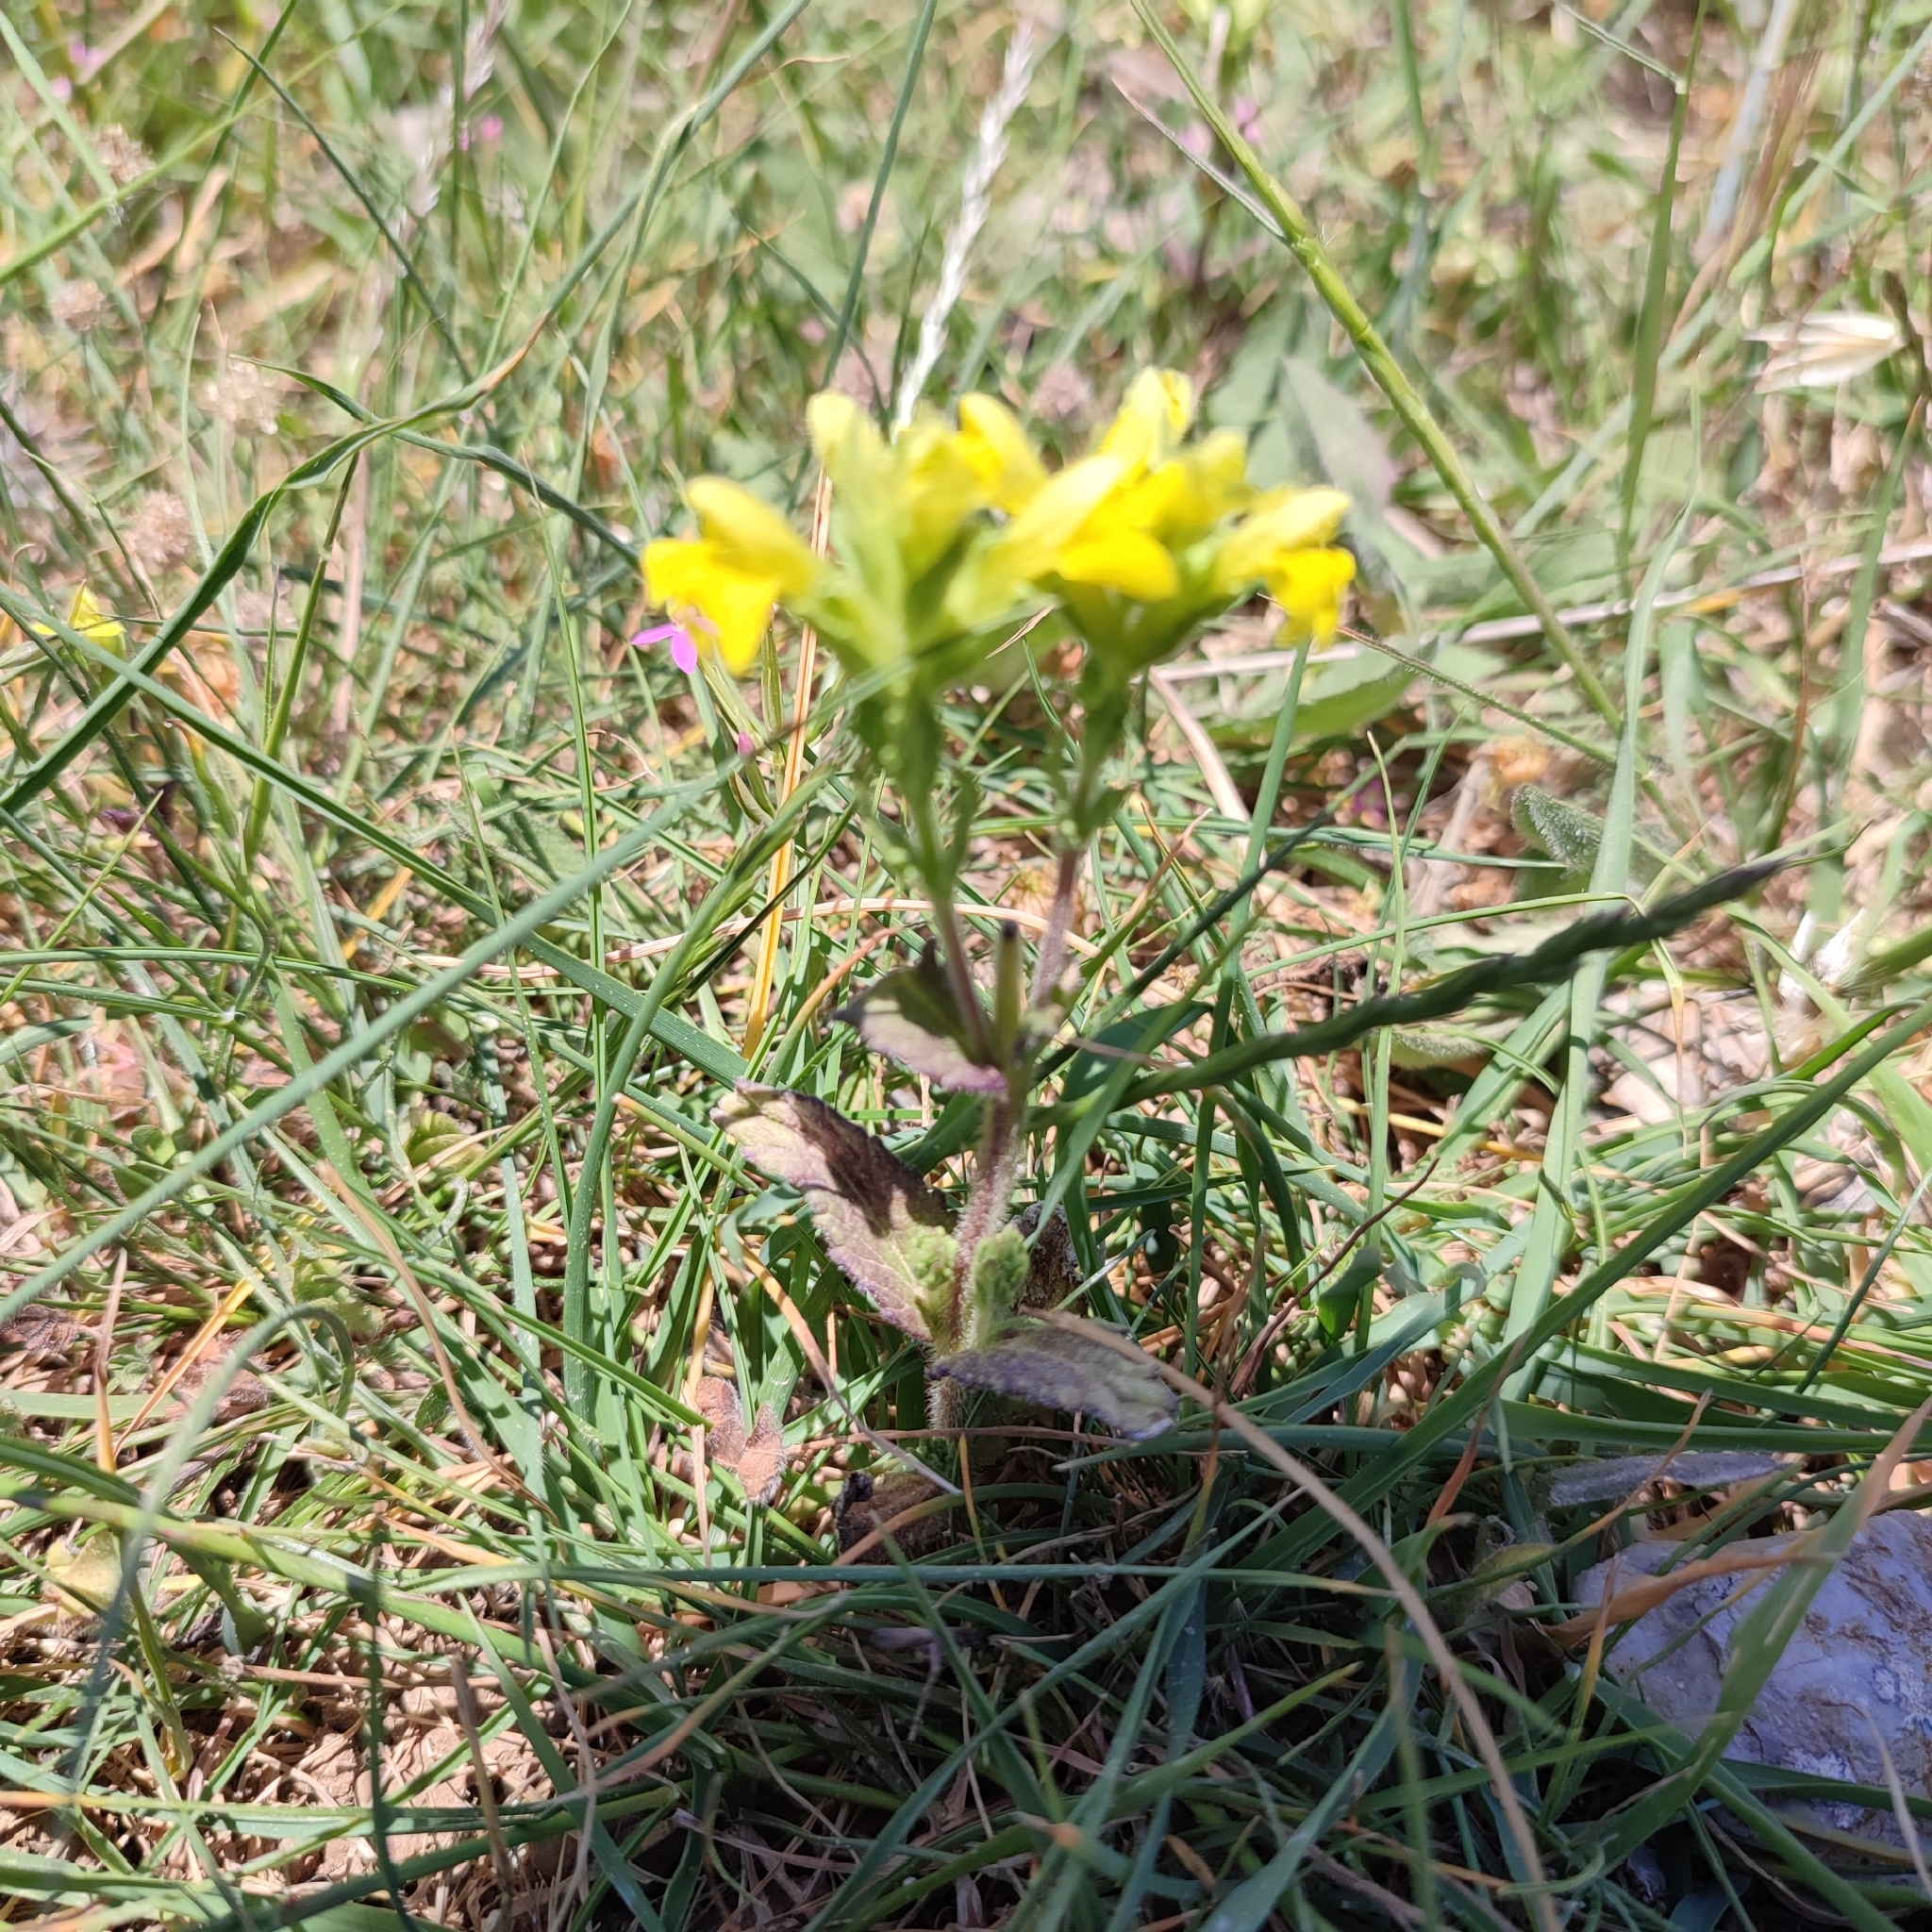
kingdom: Plantae
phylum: Tracheophyta
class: Magnoliopsida
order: Lamiales
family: Orobanchaceae
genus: Bellardia
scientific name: Bellardia viscosa
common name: Sticky parentucellia
